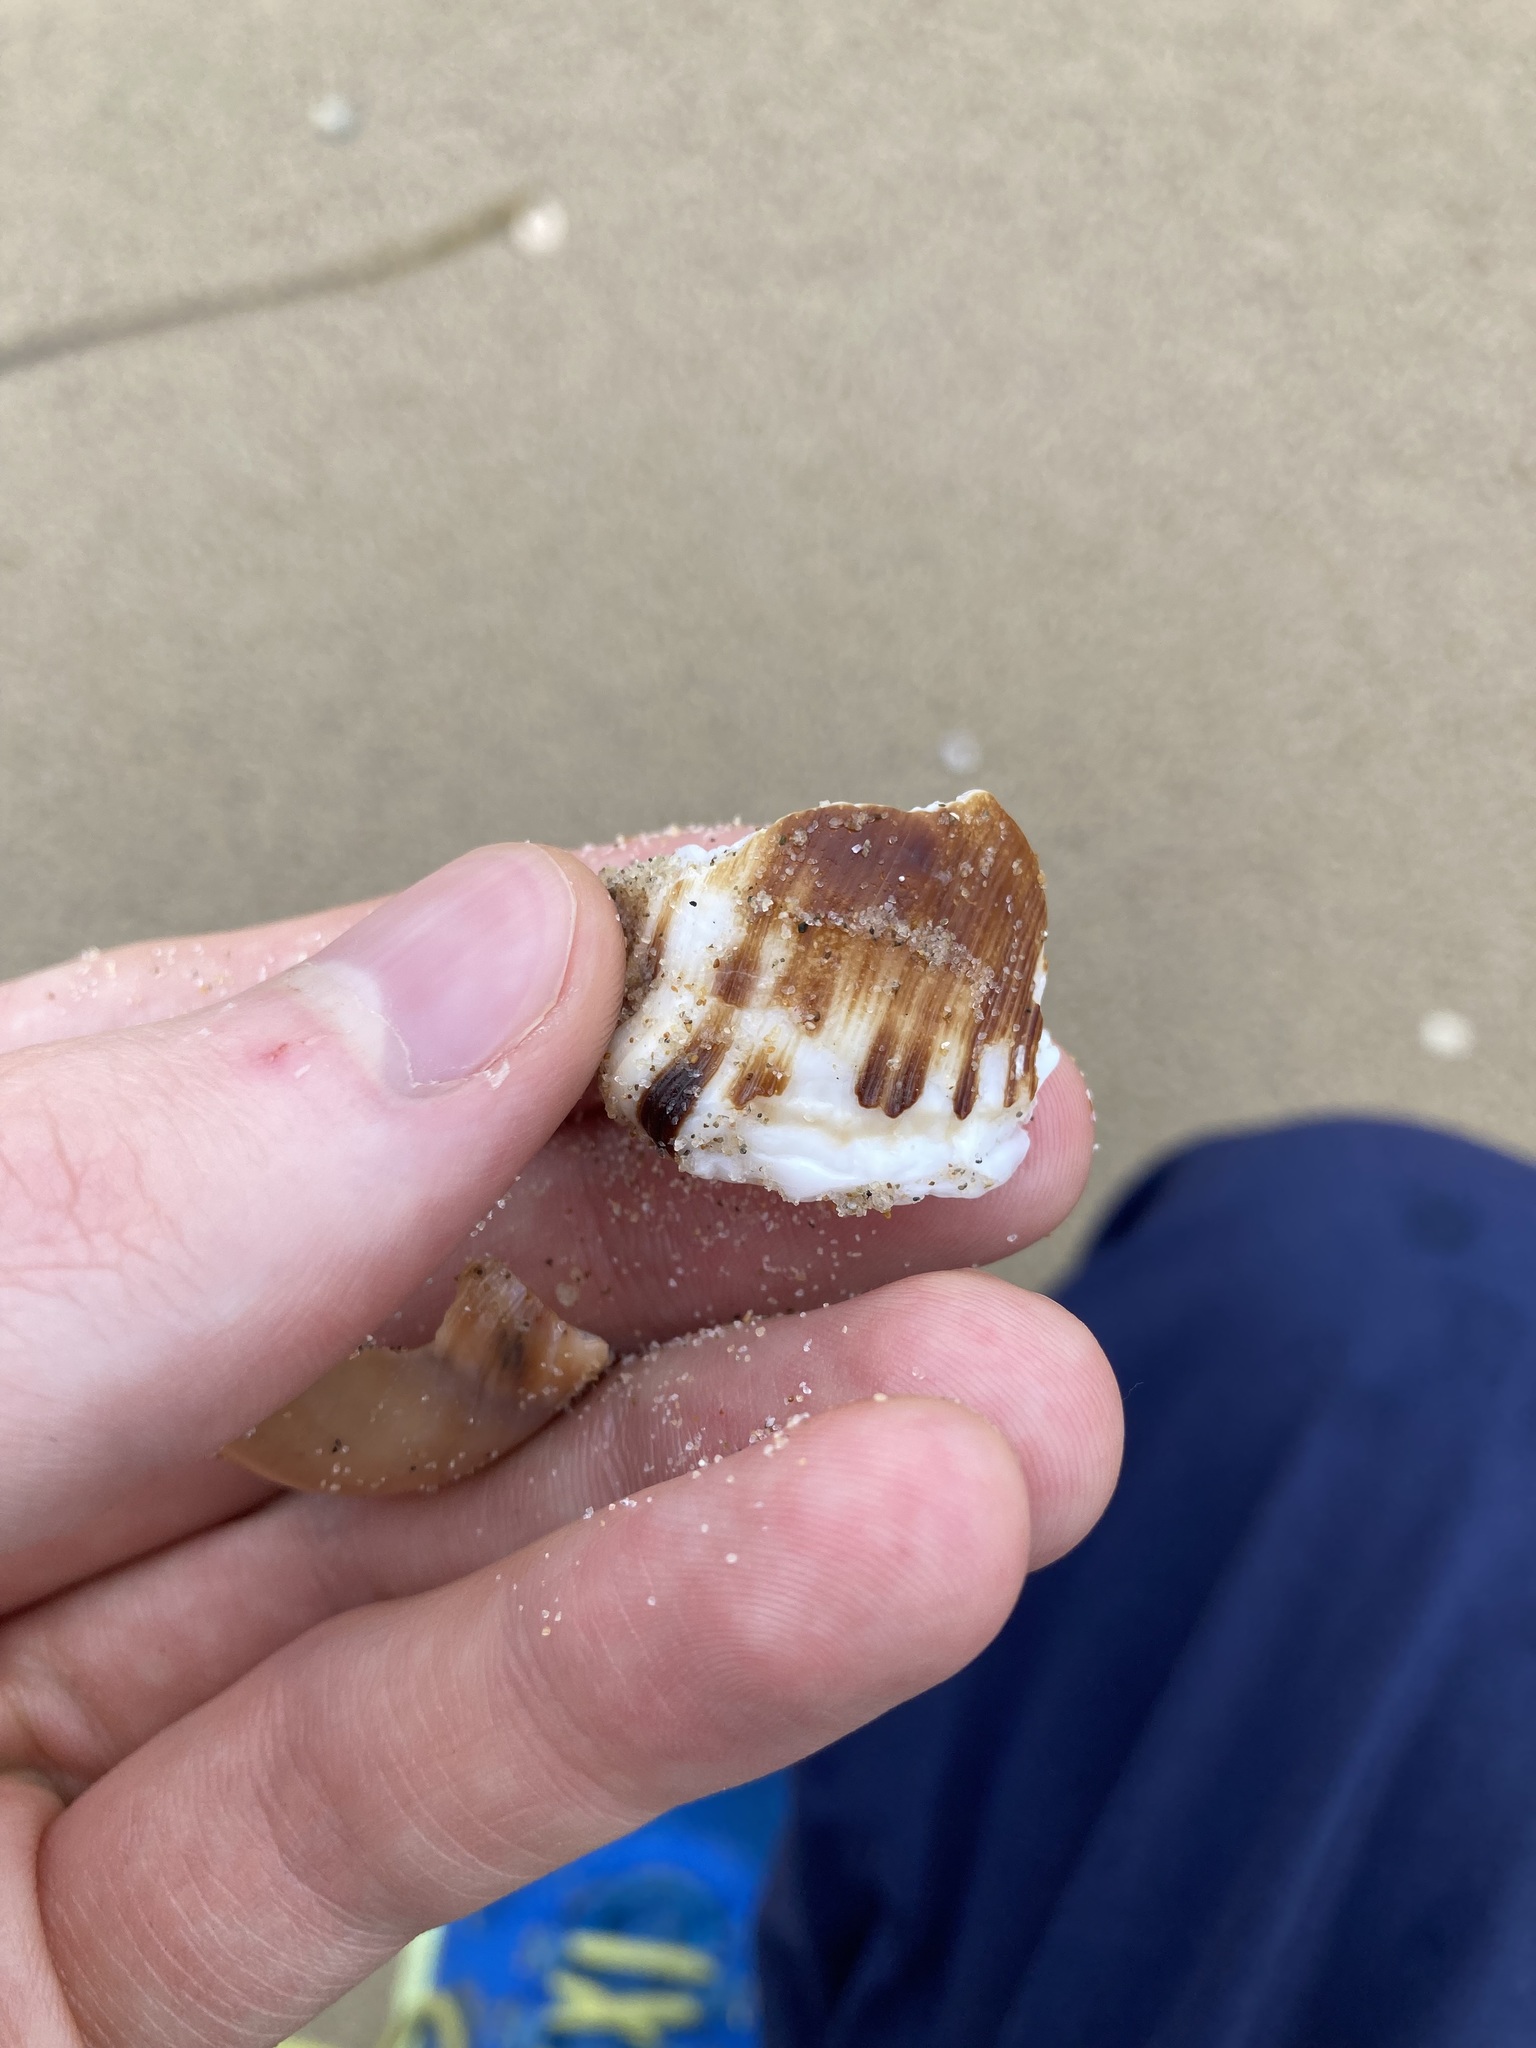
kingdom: Animalia
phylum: Mollusca
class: Gastropoda
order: Littorinimorpha
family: Ranellidae
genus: Ranella
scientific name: Ranella australasia
